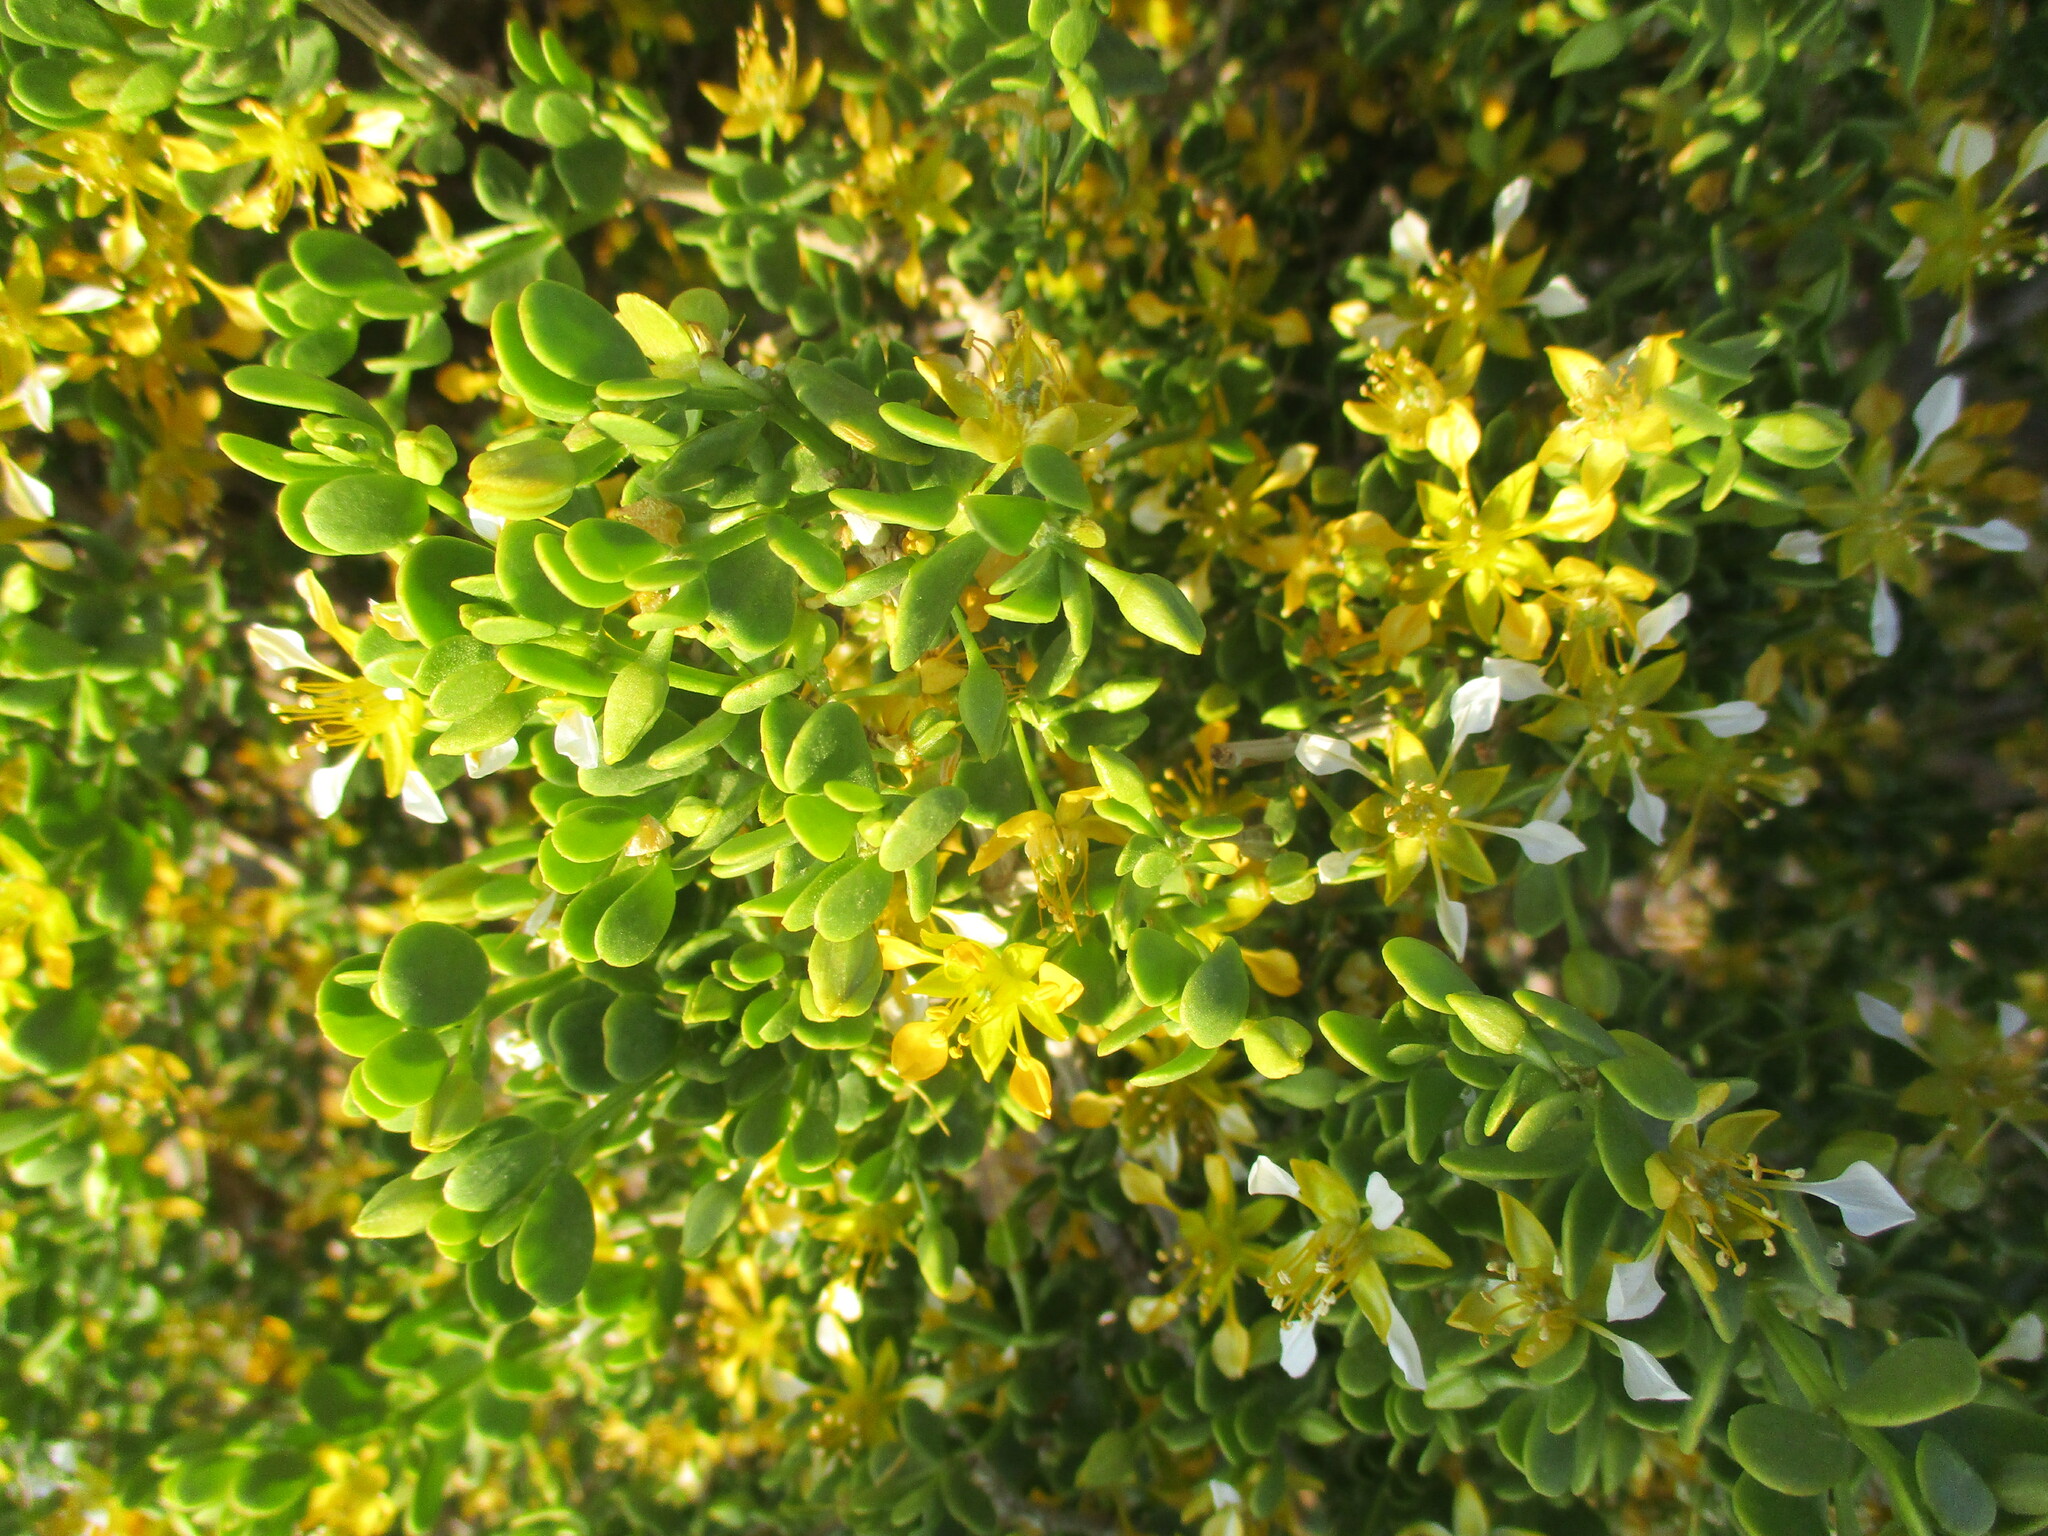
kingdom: Plantae
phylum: Tracheophyta
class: Magnoliopsida
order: Zygophyllales
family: Zygophyllaceae
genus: Tetraena
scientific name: Tetraena rigida
